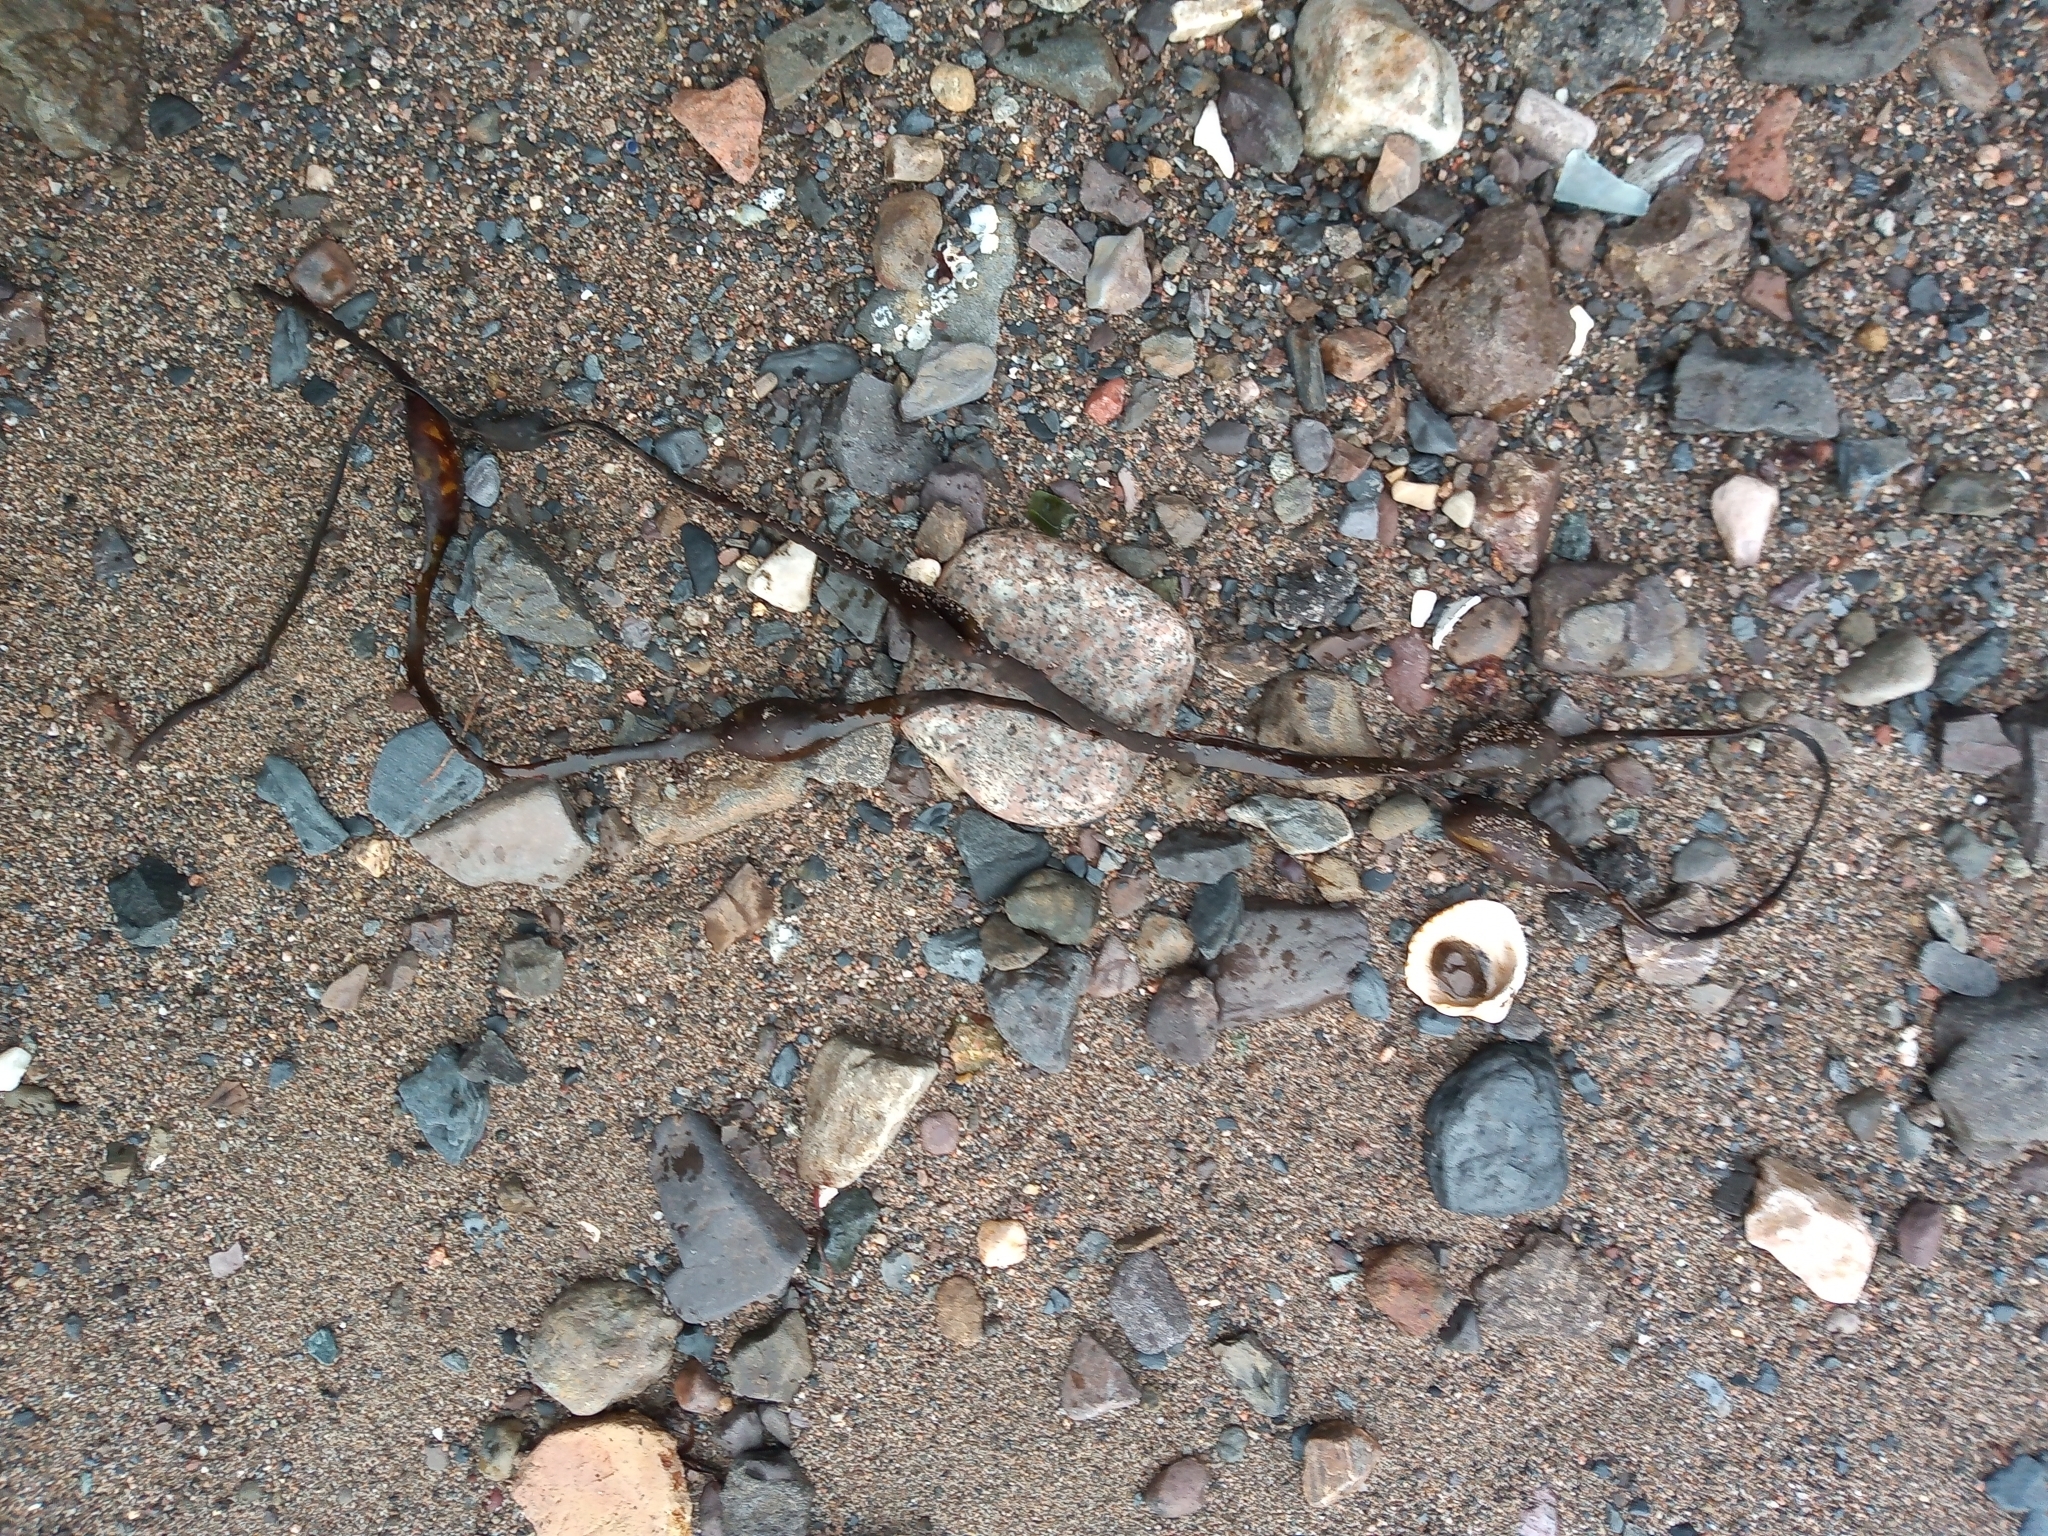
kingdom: Chromista
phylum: Ochrophyta
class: Phaeophyceae
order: Fucales
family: Fucaceae
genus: Ascophyllum
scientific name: Ascophyllum nodosum
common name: Knotted wrack
